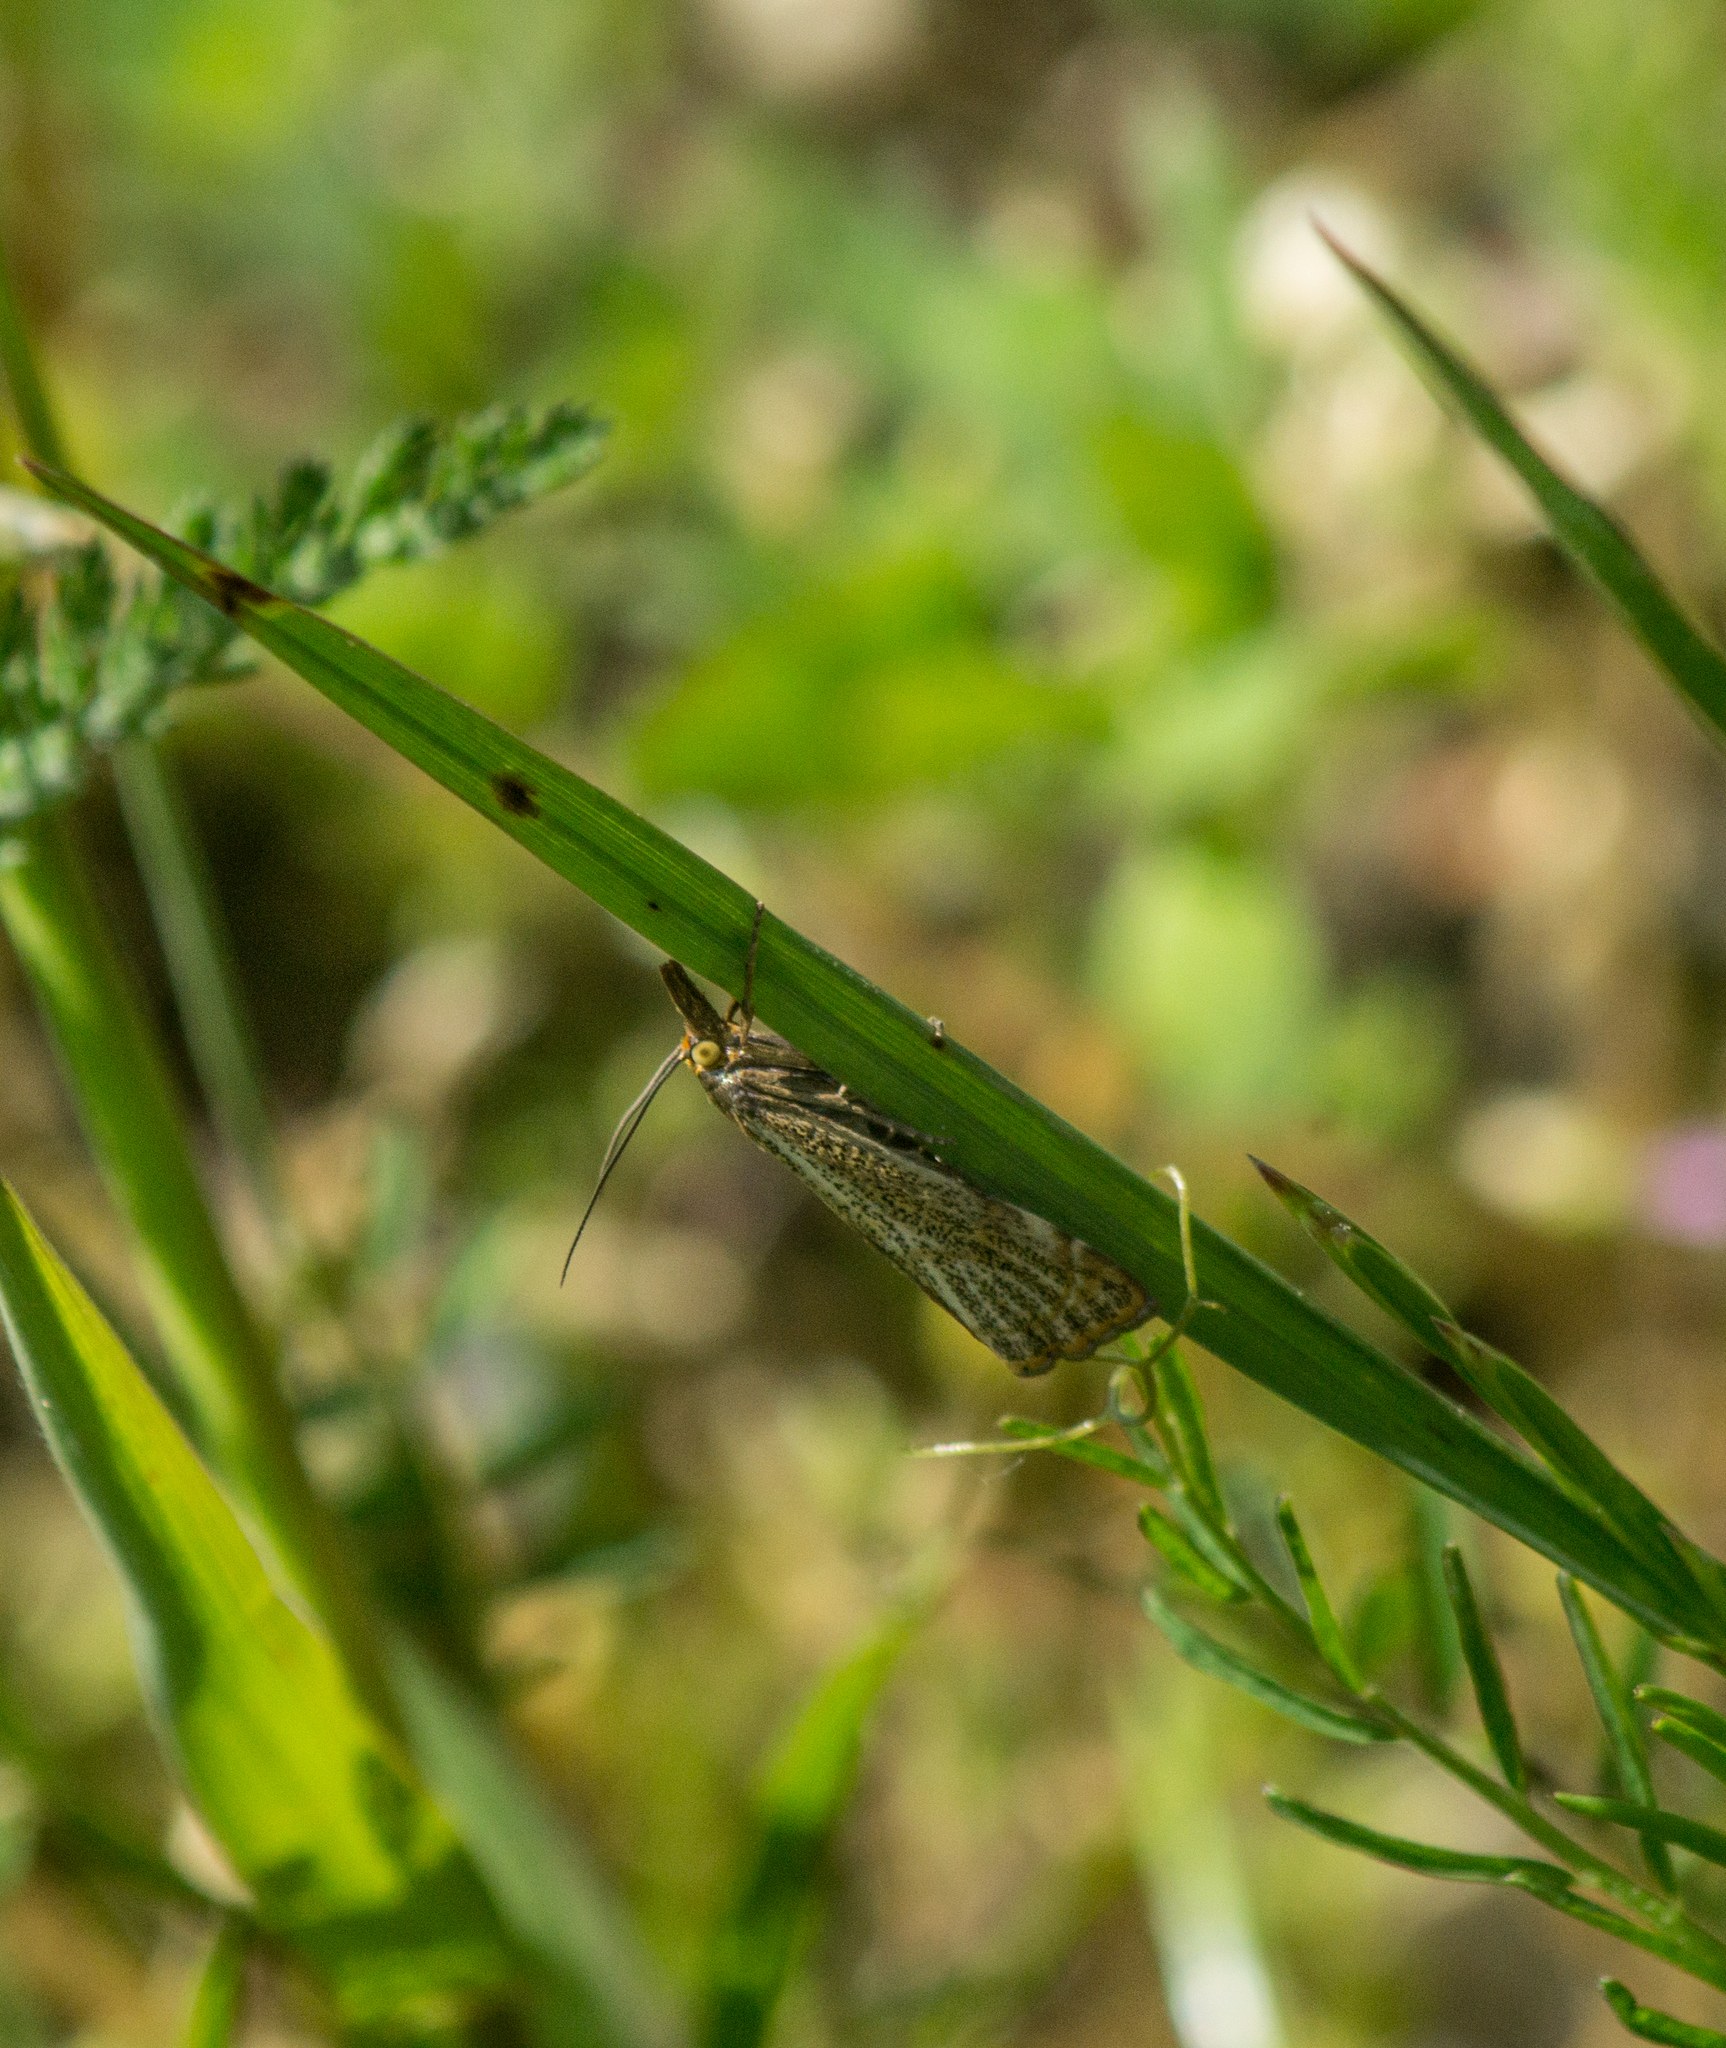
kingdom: Animalia
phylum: Arthropoda
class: Insecta
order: Lepidoptera
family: Crambidae
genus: Thisanotia
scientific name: Thisanotia chrysonuchella
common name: Powdered grass-veneer
